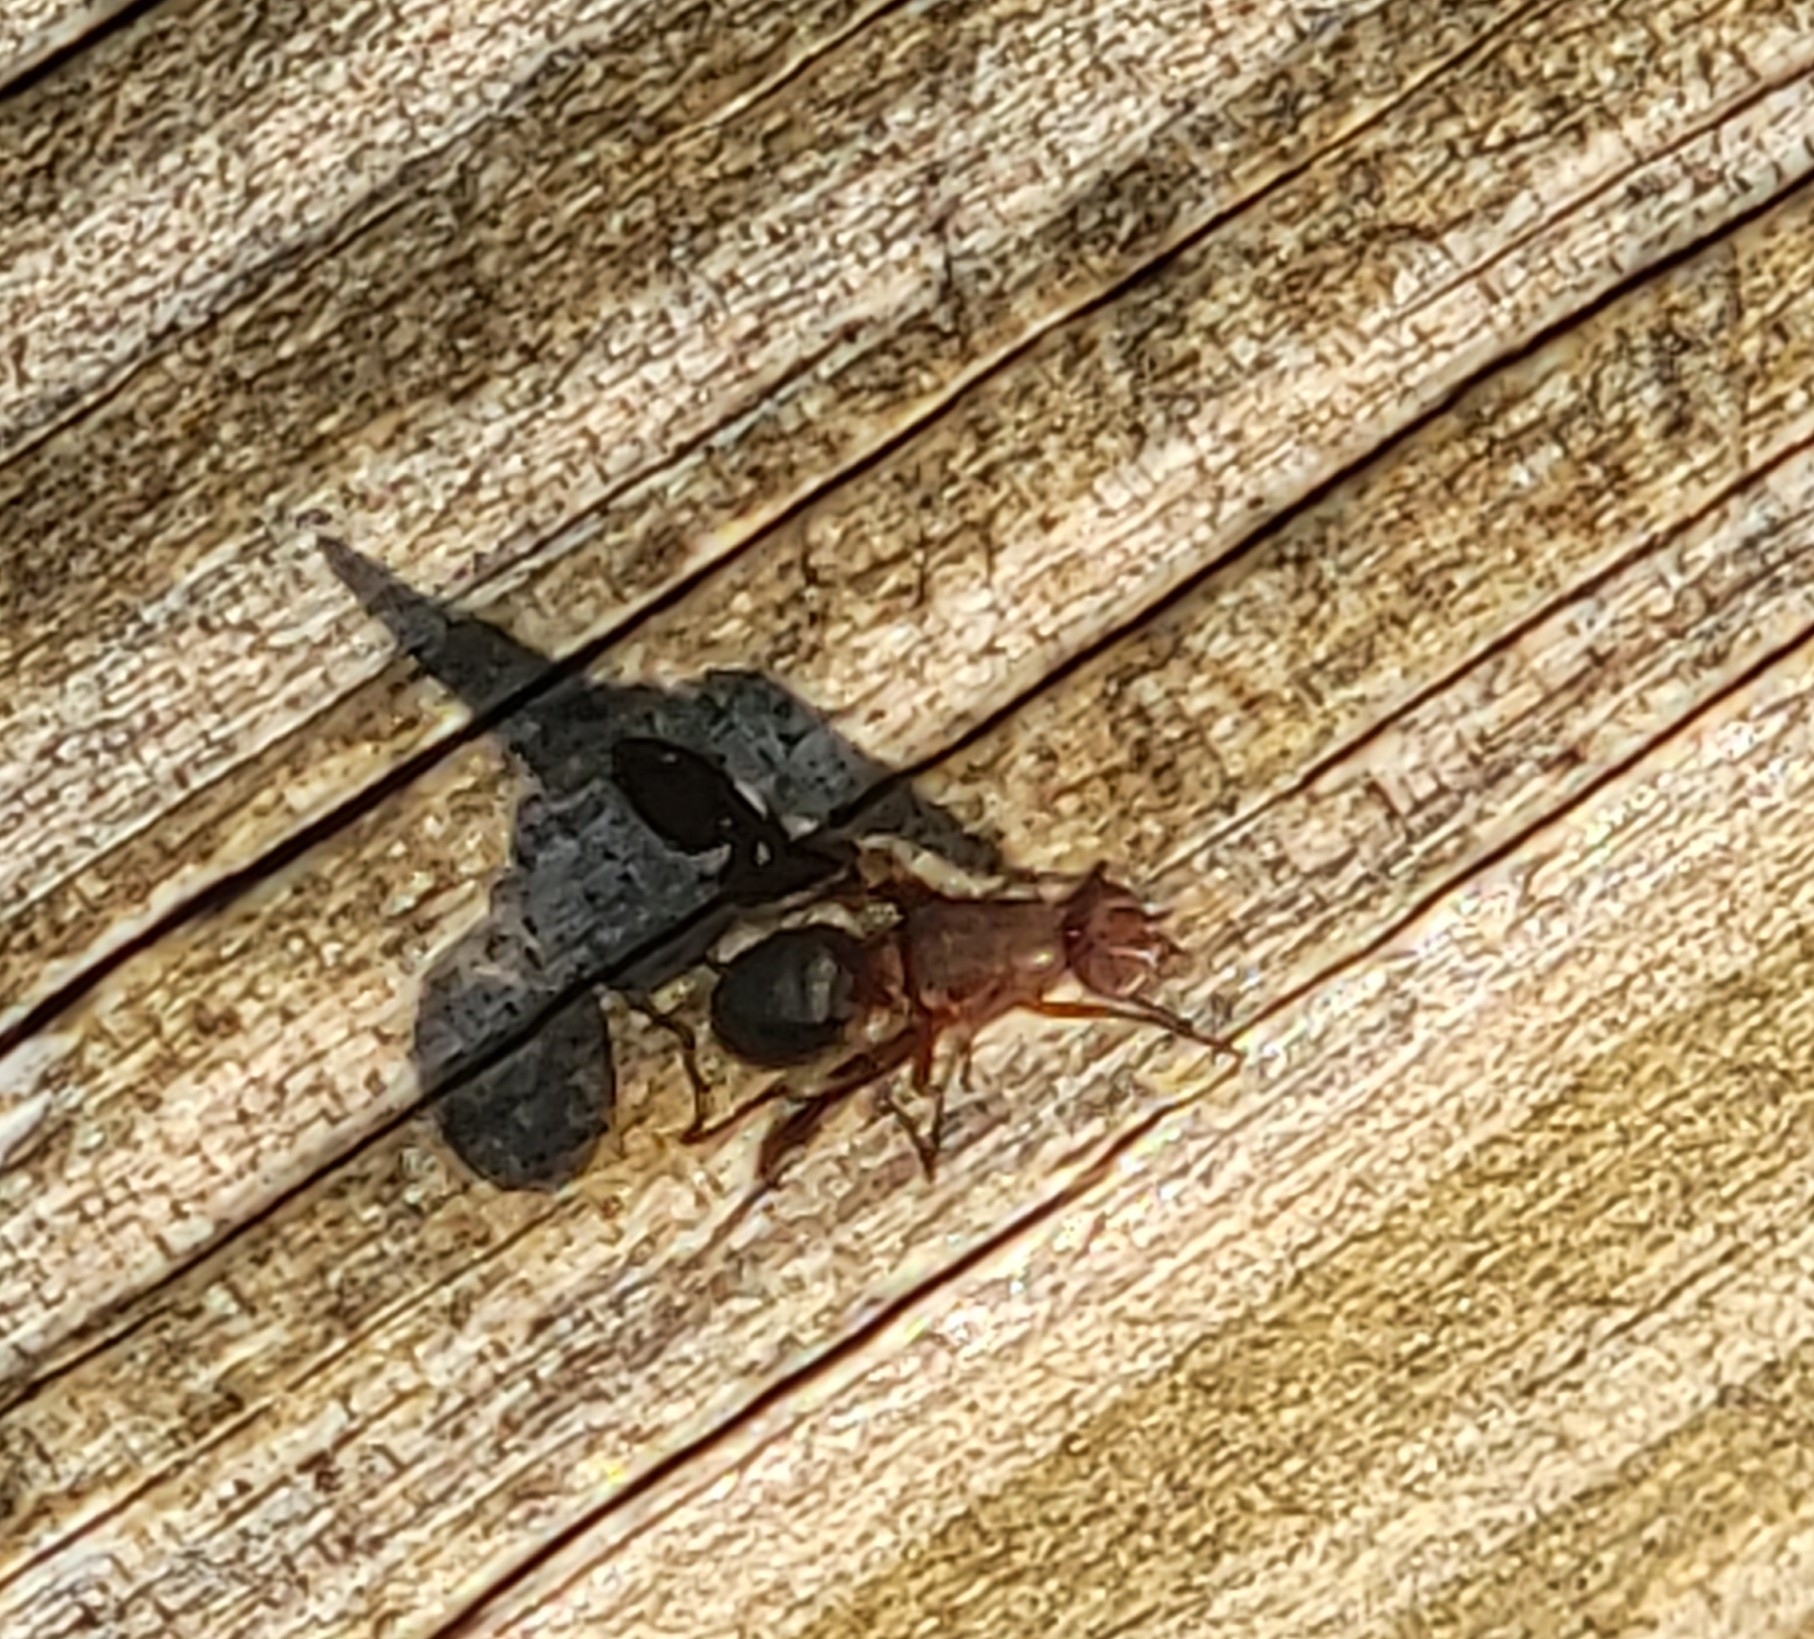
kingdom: Animalia
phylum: Arthropoda
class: Insecta
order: Diptera
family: Ulidiidae
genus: Delphinia
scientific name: Delphinia picta
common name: Common picture-winged fly
